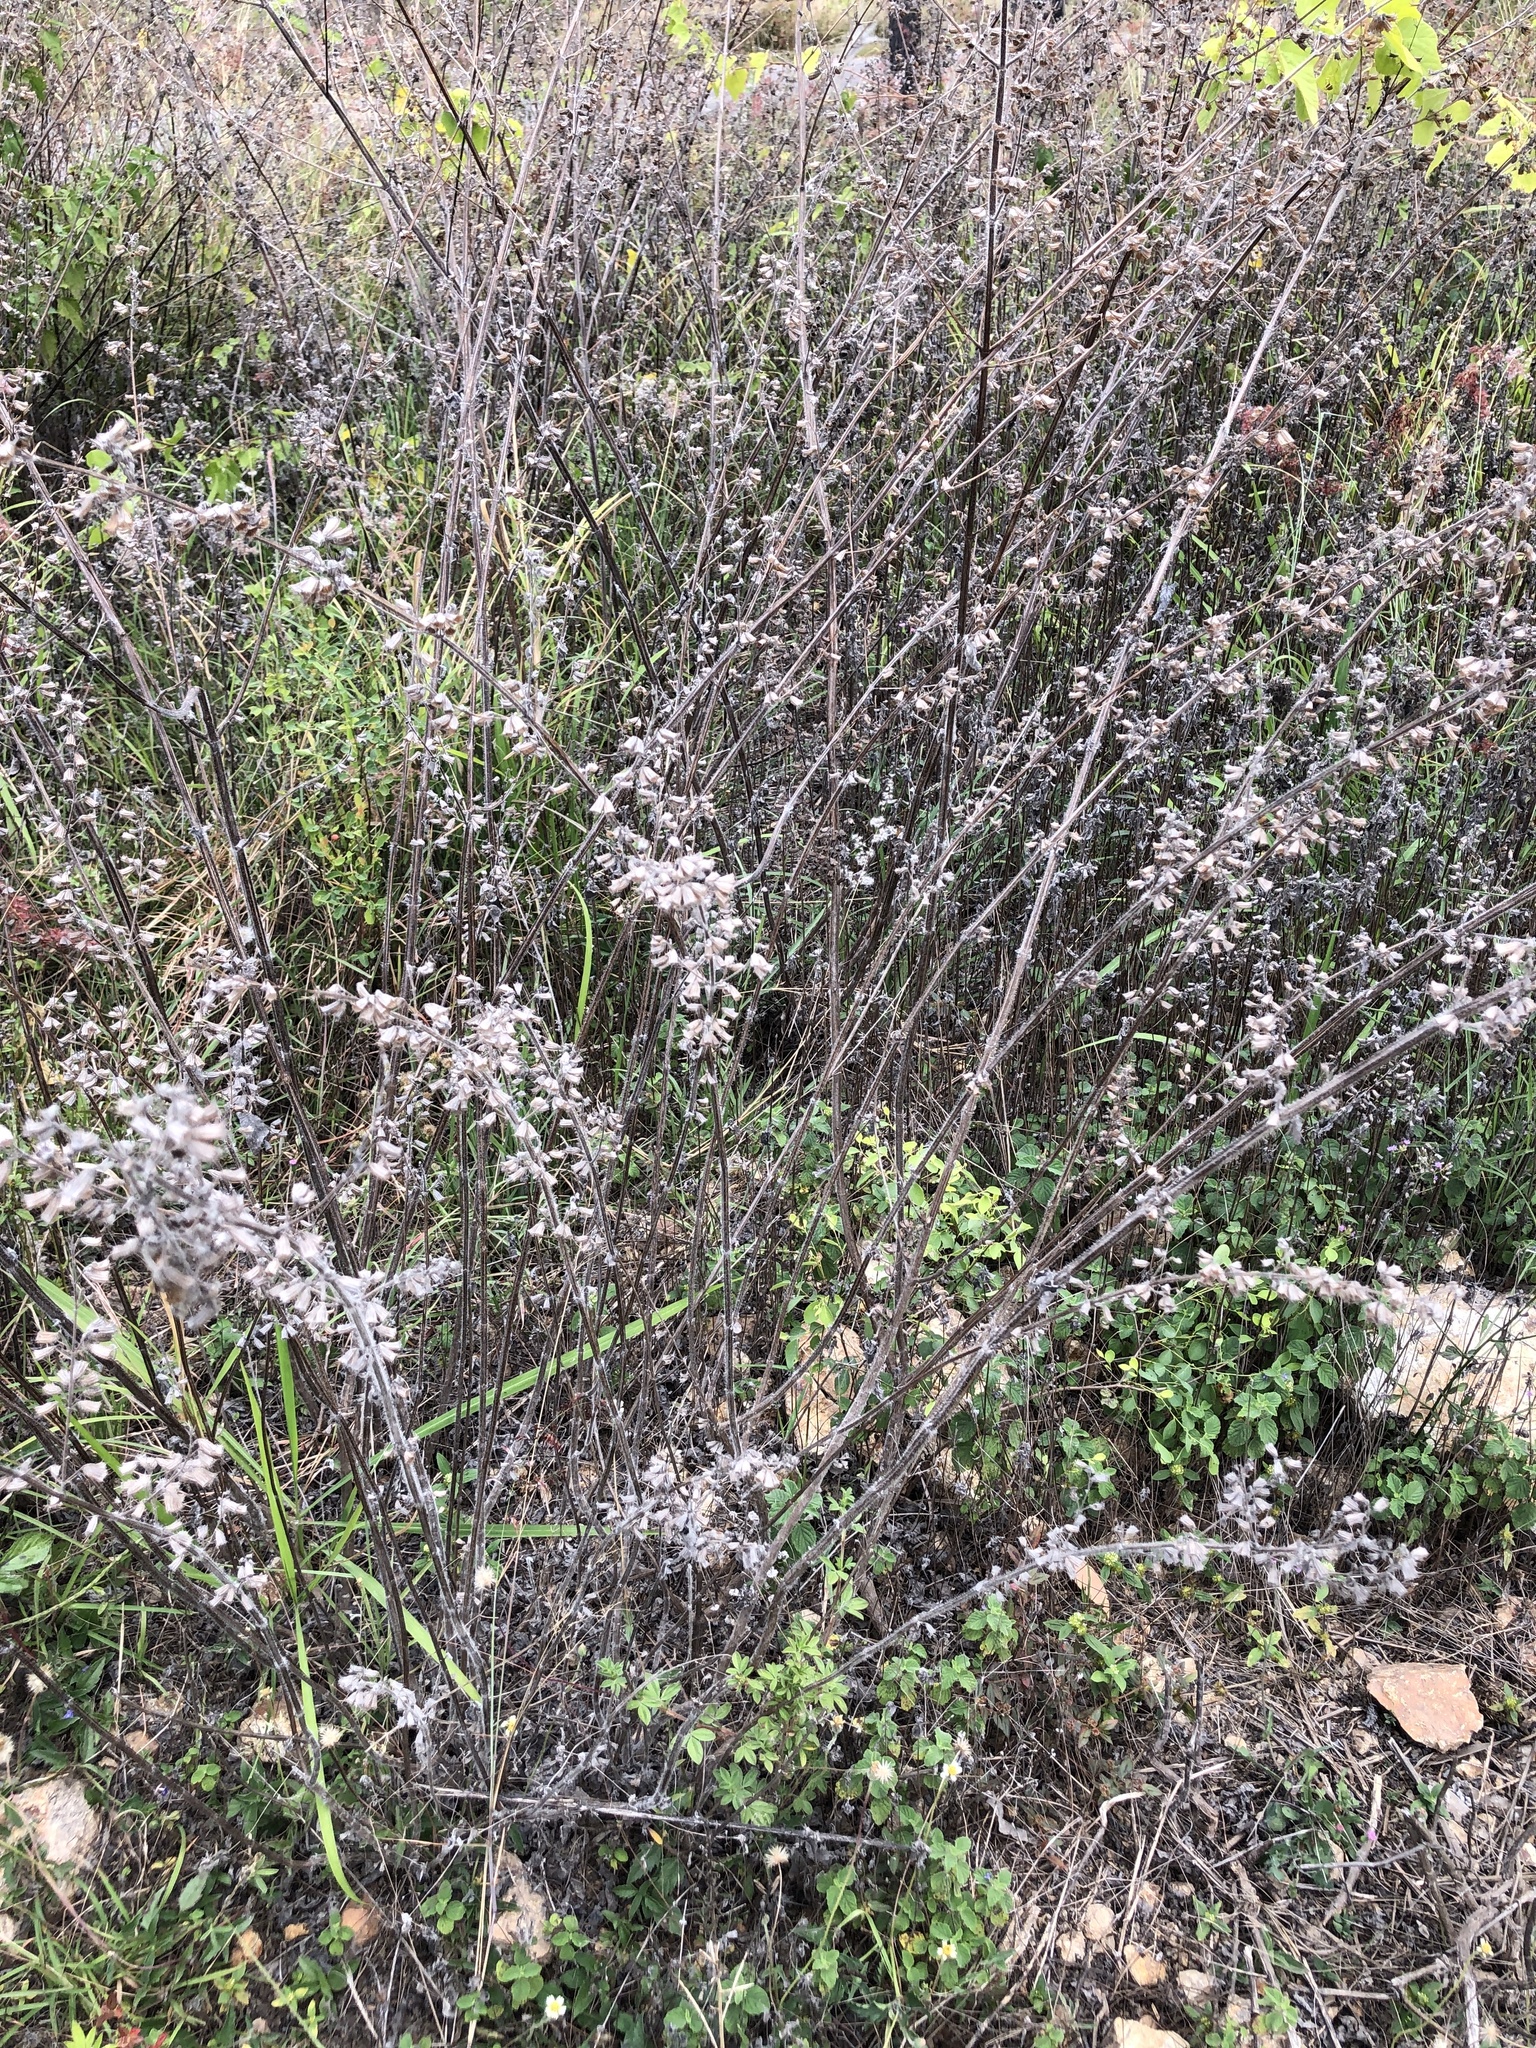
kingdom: Plantae
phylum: Tracheophyta
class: Magnoliopsida
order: Lamiales
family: Lamiaceae
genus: Mesosphaerum
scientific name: Mesosphaerum suaveolens
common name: Pignut
